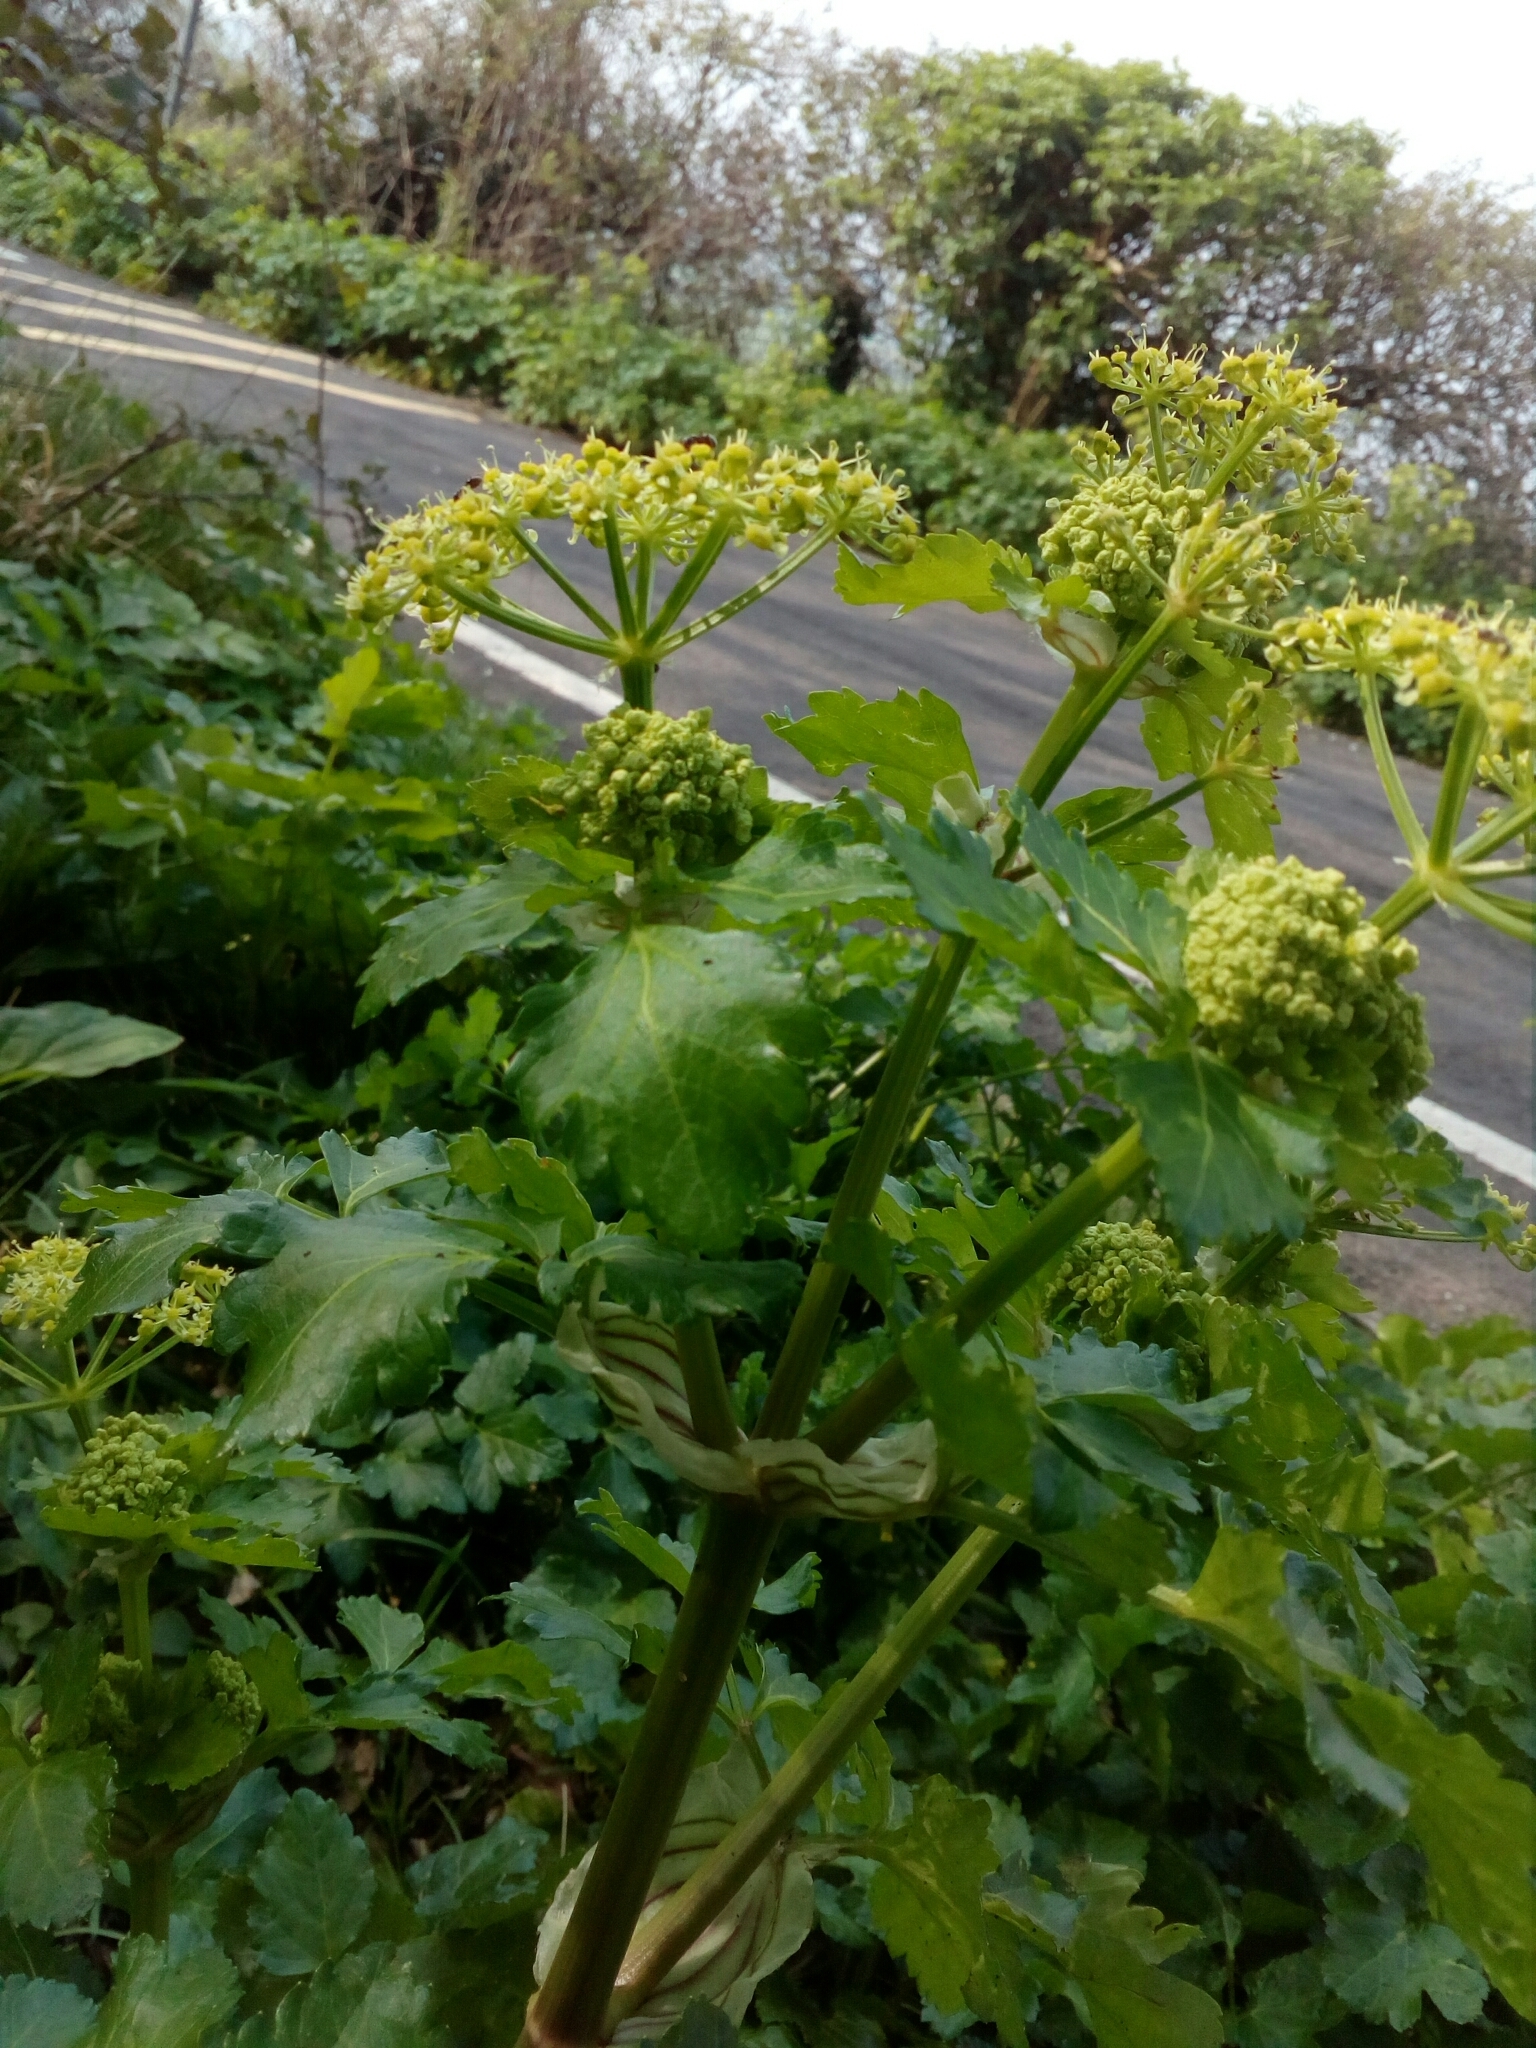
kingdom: Plantae
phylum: Tracheophyta
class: Magnoliopsida
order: Apiales
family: Apiaceae
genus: Smyrnium
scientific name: Smyrnium olusatrum
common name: Alexanders
